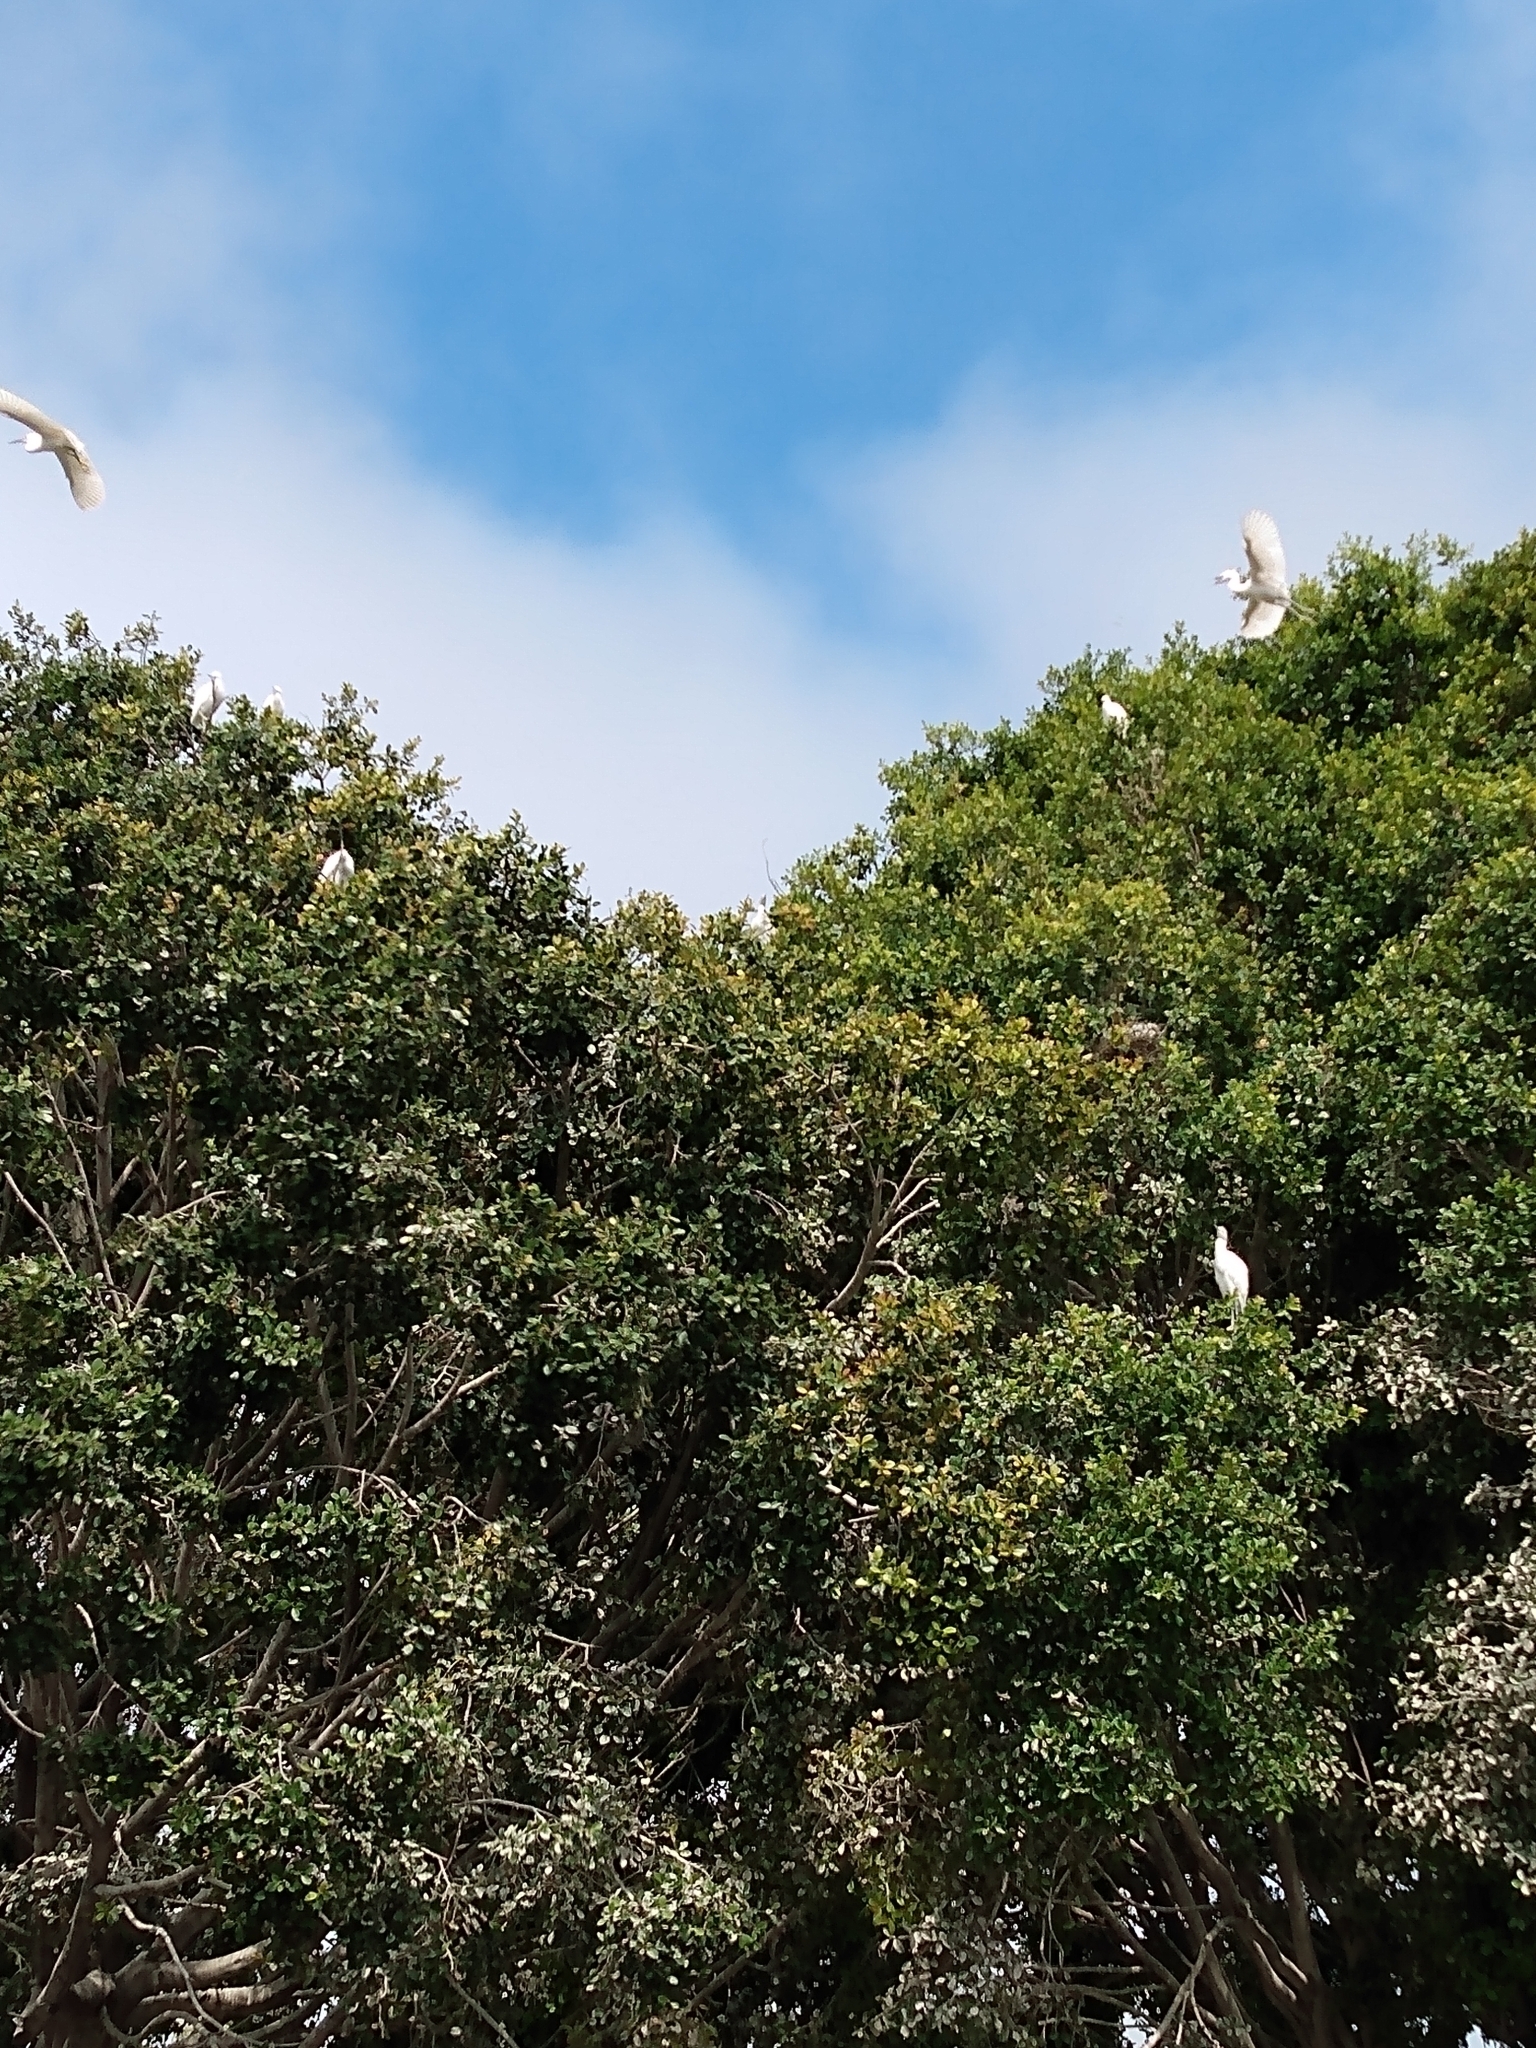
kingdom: Animalia
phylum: Chordata
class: Aves
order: Pelecaniformes
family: Ardeidae
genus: Egretta
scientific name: Egretta thula
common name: Snowy egret
